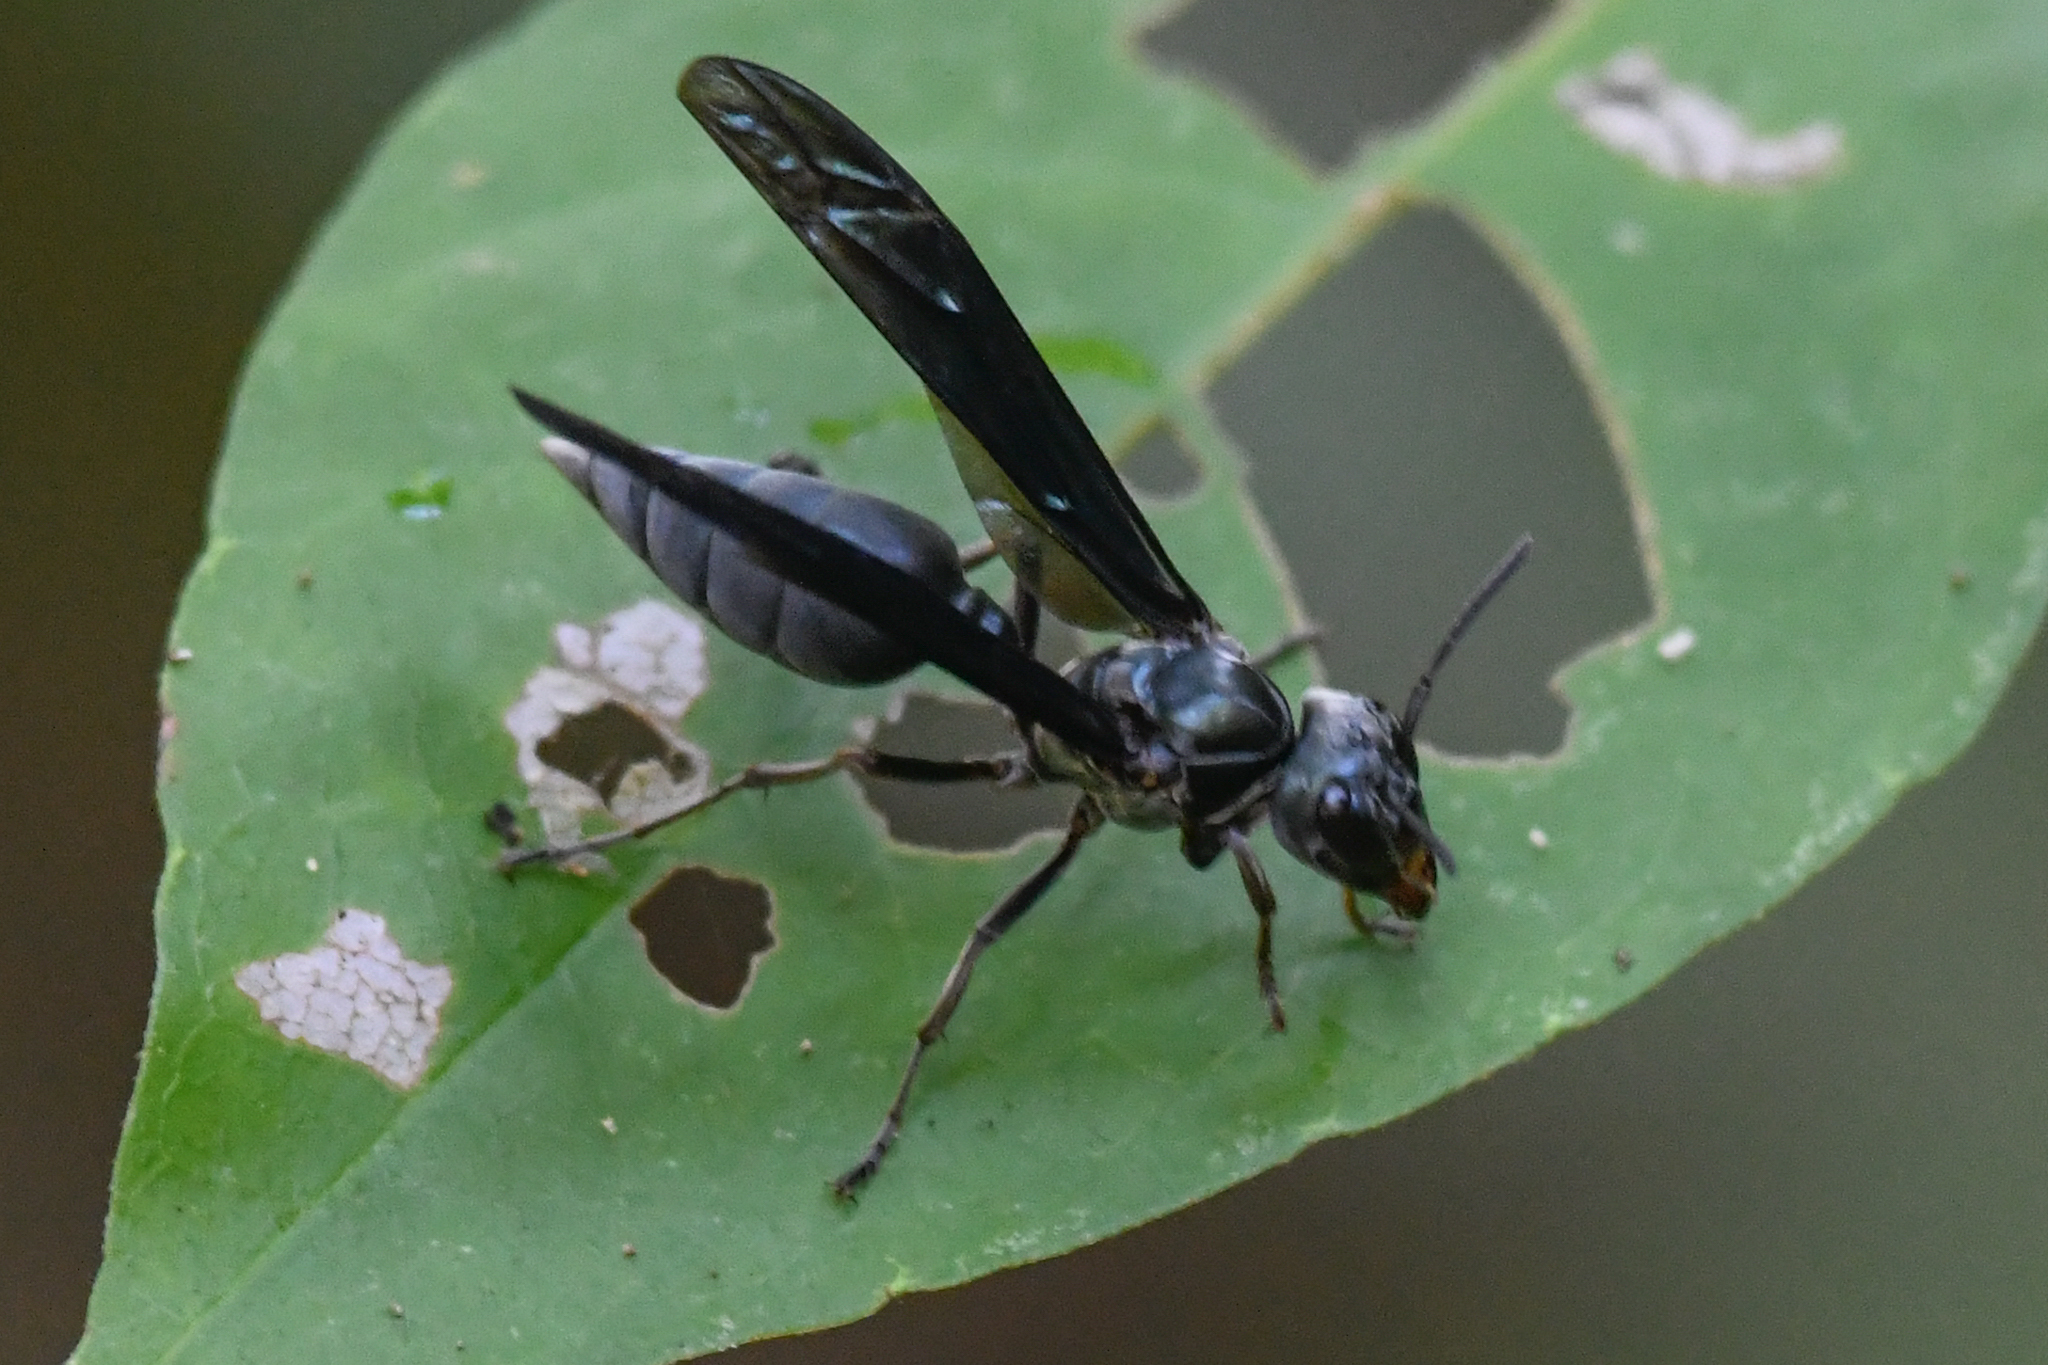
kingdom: Animalia
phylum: Arthropoda
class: Insecta
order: Hymenoptera
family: Vespidae
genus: Synoeca
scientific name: Synoeca septentrionalis
